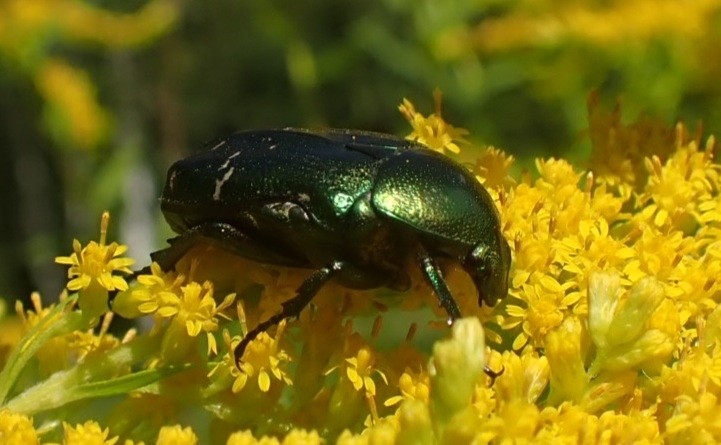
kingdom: Animalia
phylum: Arthropoda
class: Insecta
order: Coleoptera
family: Scarabaeidae
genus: Cetonia
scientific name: Cetonia aurata
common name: Rose chafer
